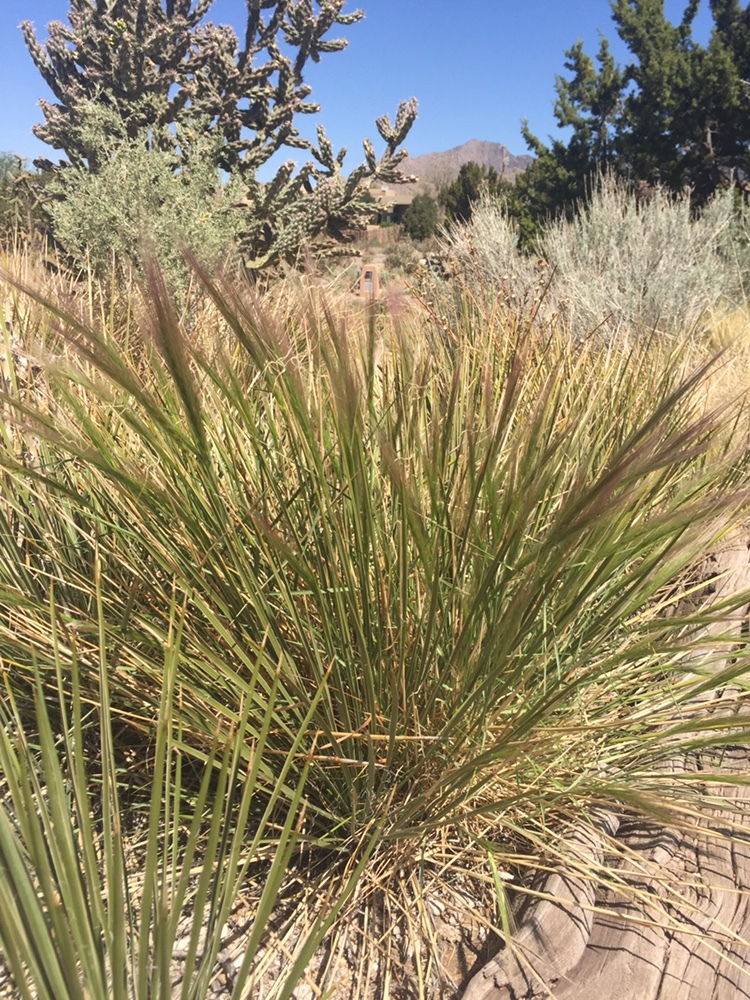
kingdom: Plantae
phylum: Tracheophyta
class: Liliopsida
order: Poales
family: Poaceae
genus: Hordeum
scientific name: Hordeum jubatum
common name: Foxtail barley
